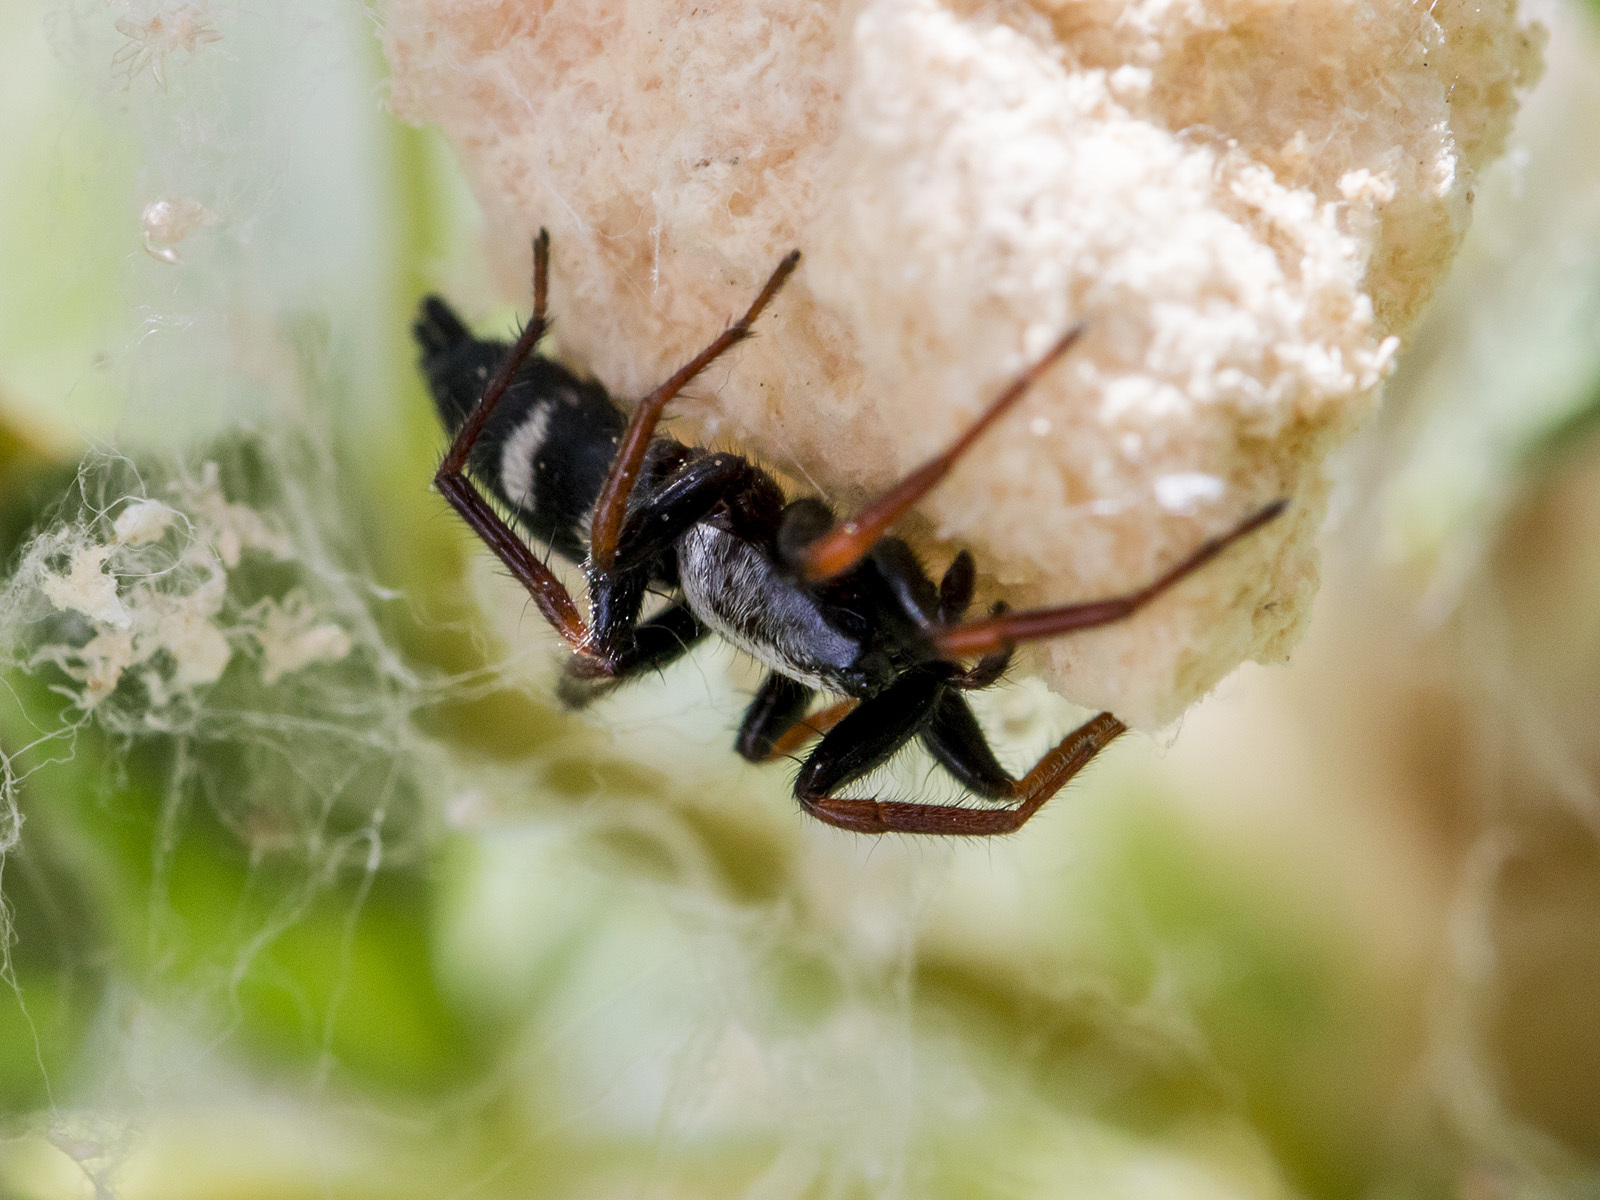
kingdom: Animalia
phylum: Arthropoda
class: Arachnida
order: Araneae
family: Gnaphosidae
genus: Aphantaulax
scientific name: Aphantaulax trifasciata
